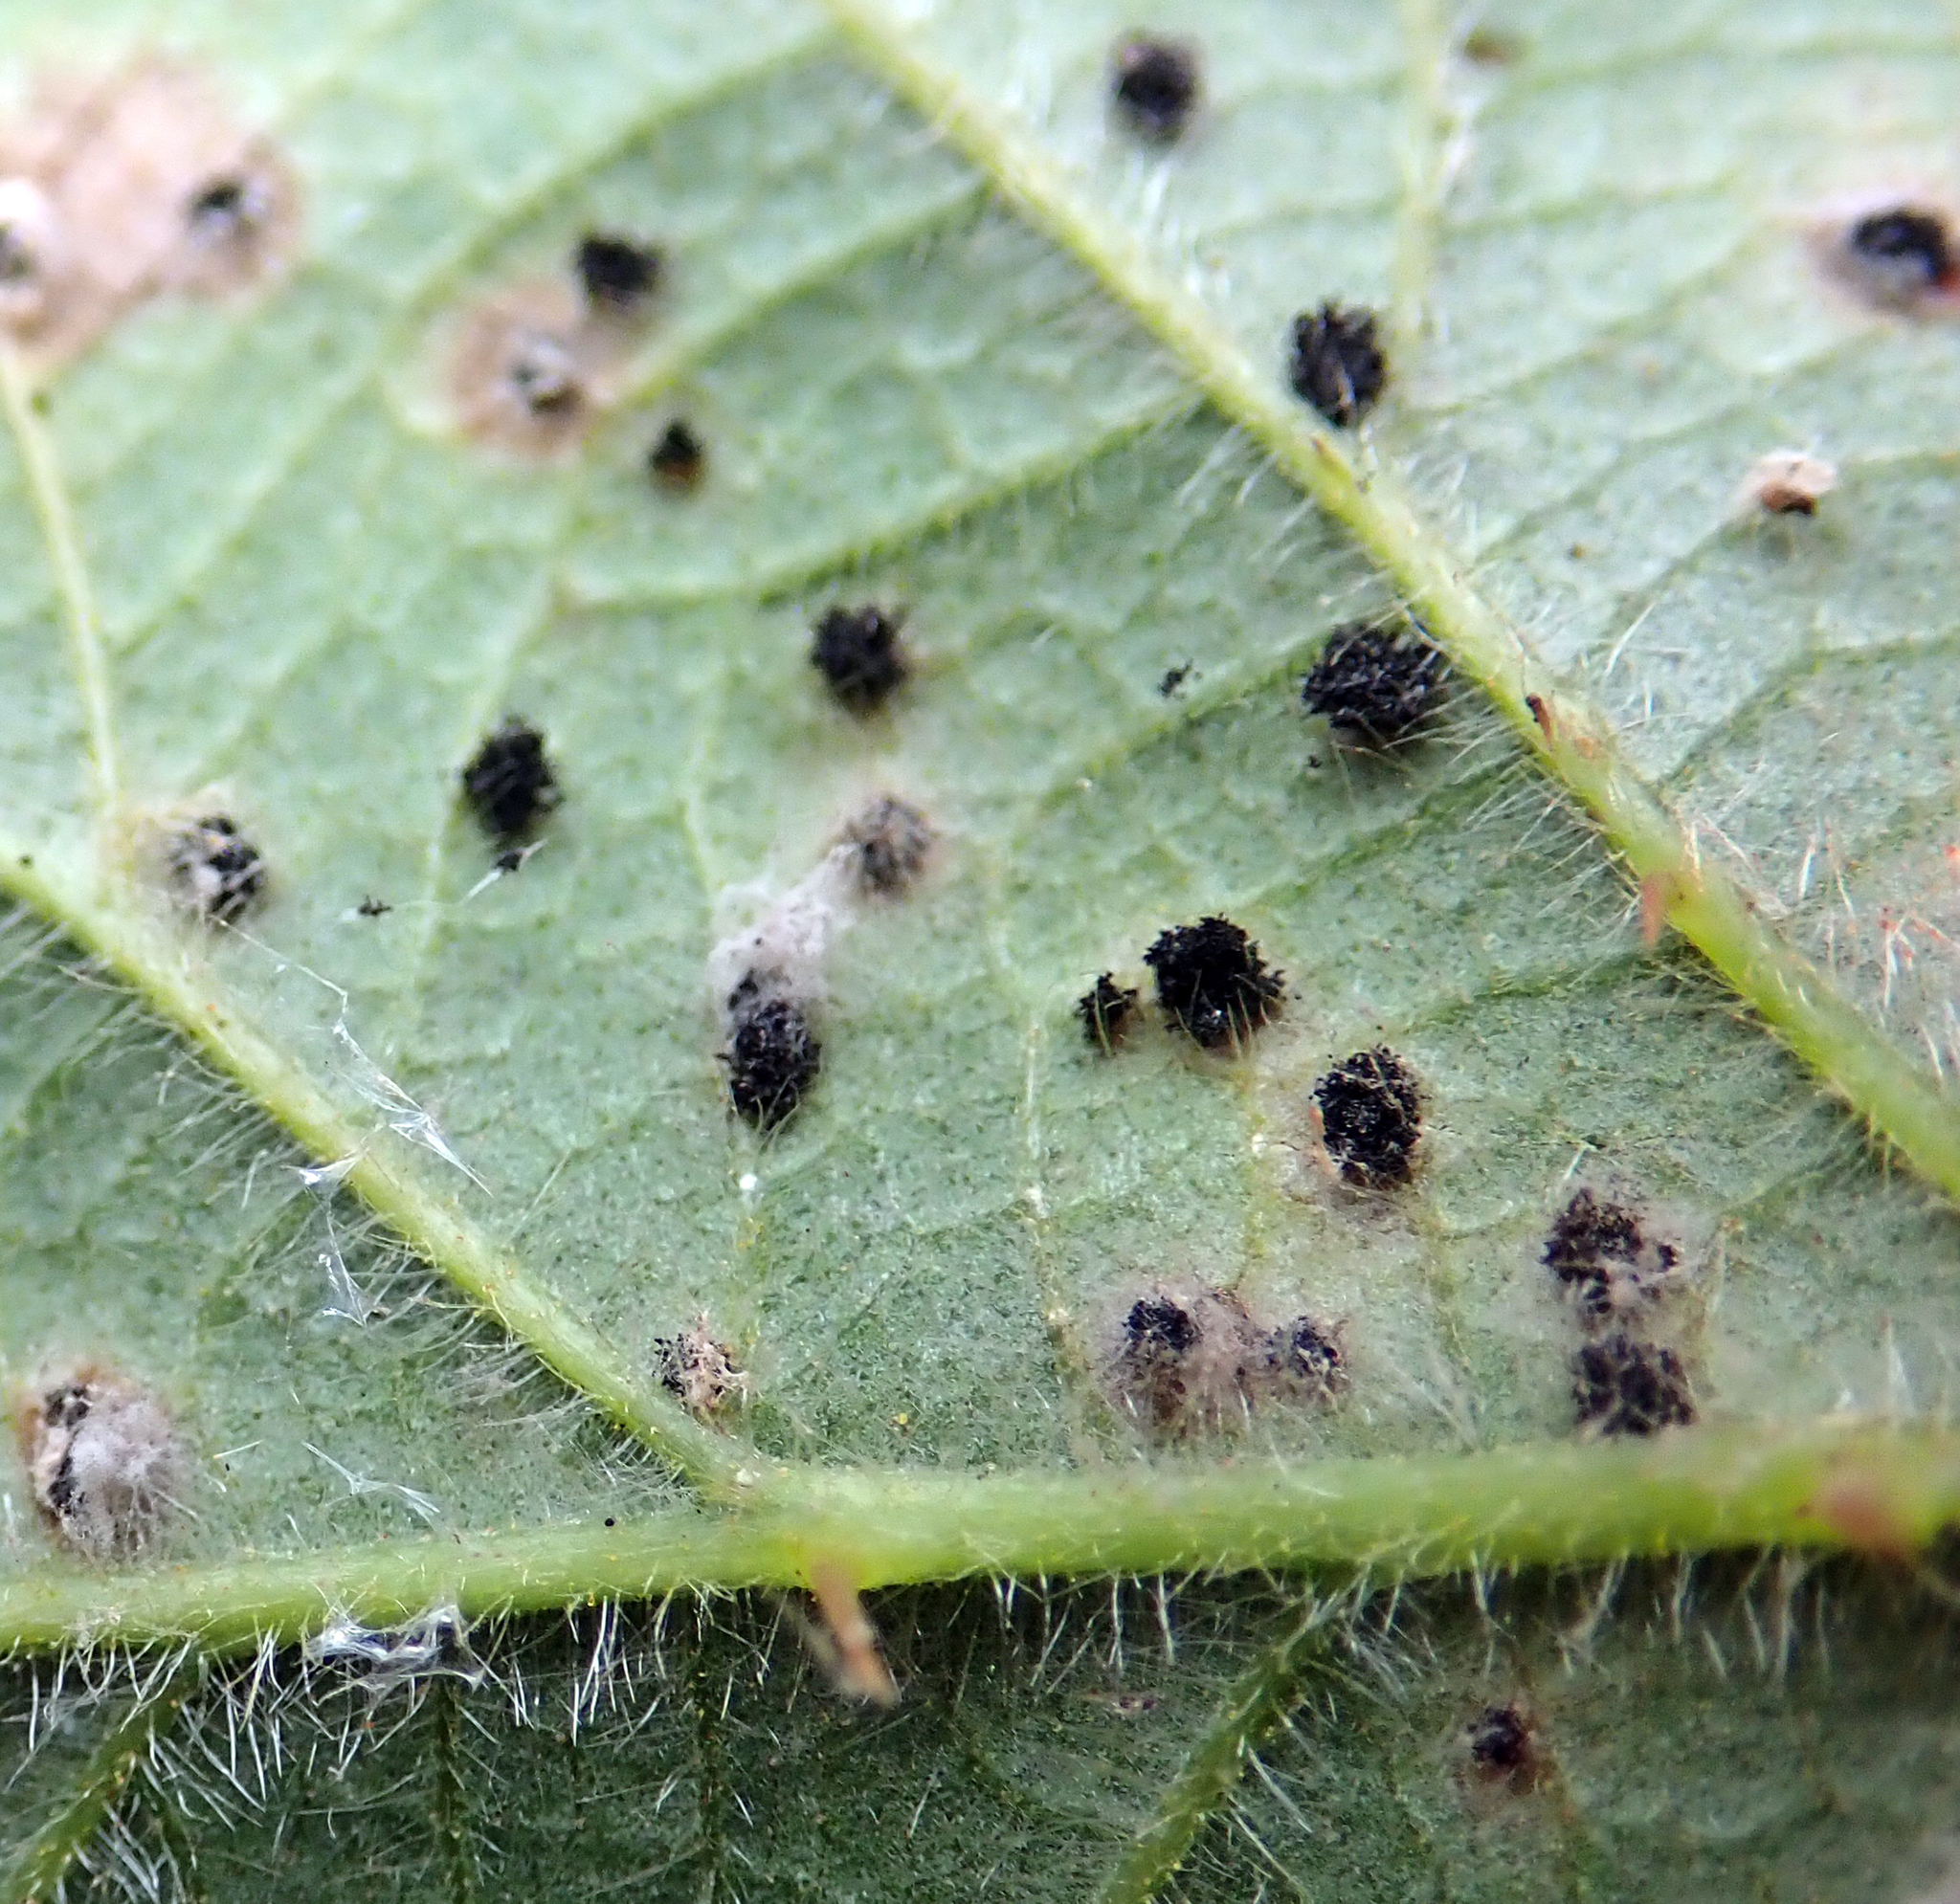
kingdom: Fungi
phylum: Basidiomycota
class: Pucciniomycetes
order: Pucciniales
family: Phragmidiaceae
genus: Phragmidium
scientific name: Phragmidium violaceum
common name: Violet bramble rust
